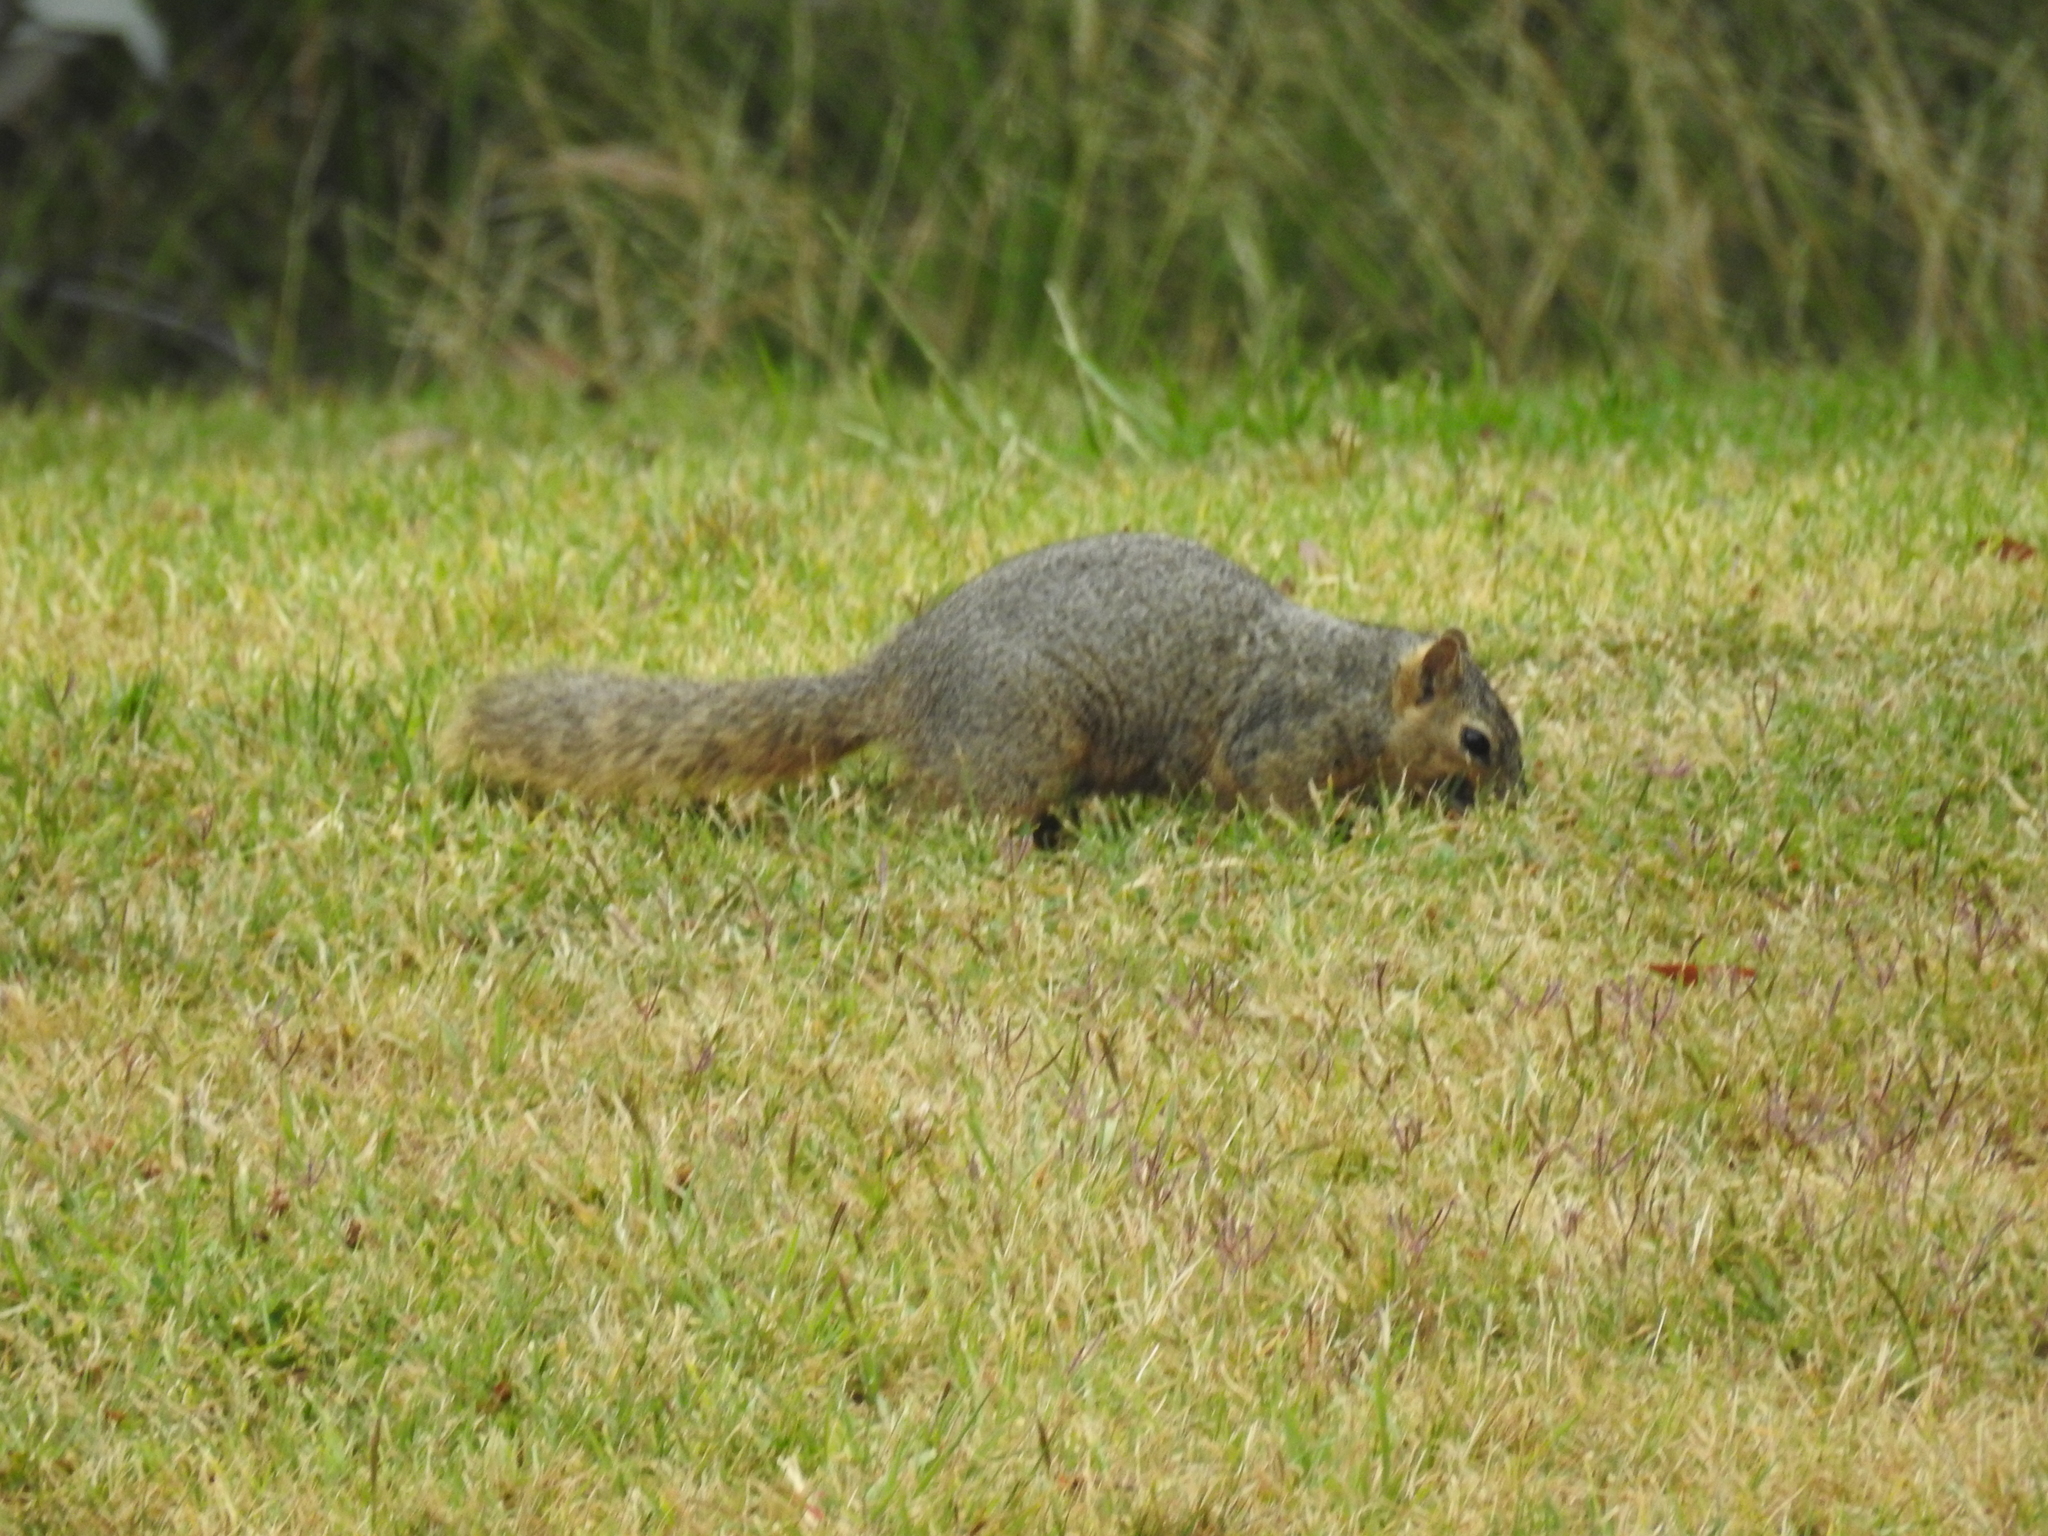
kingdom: Animalia
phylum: Chordata
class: Mammalia
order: Rodentia
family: Sciuridae
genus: Sciurus
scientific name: Sciurus niger
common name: Fox squirrel
